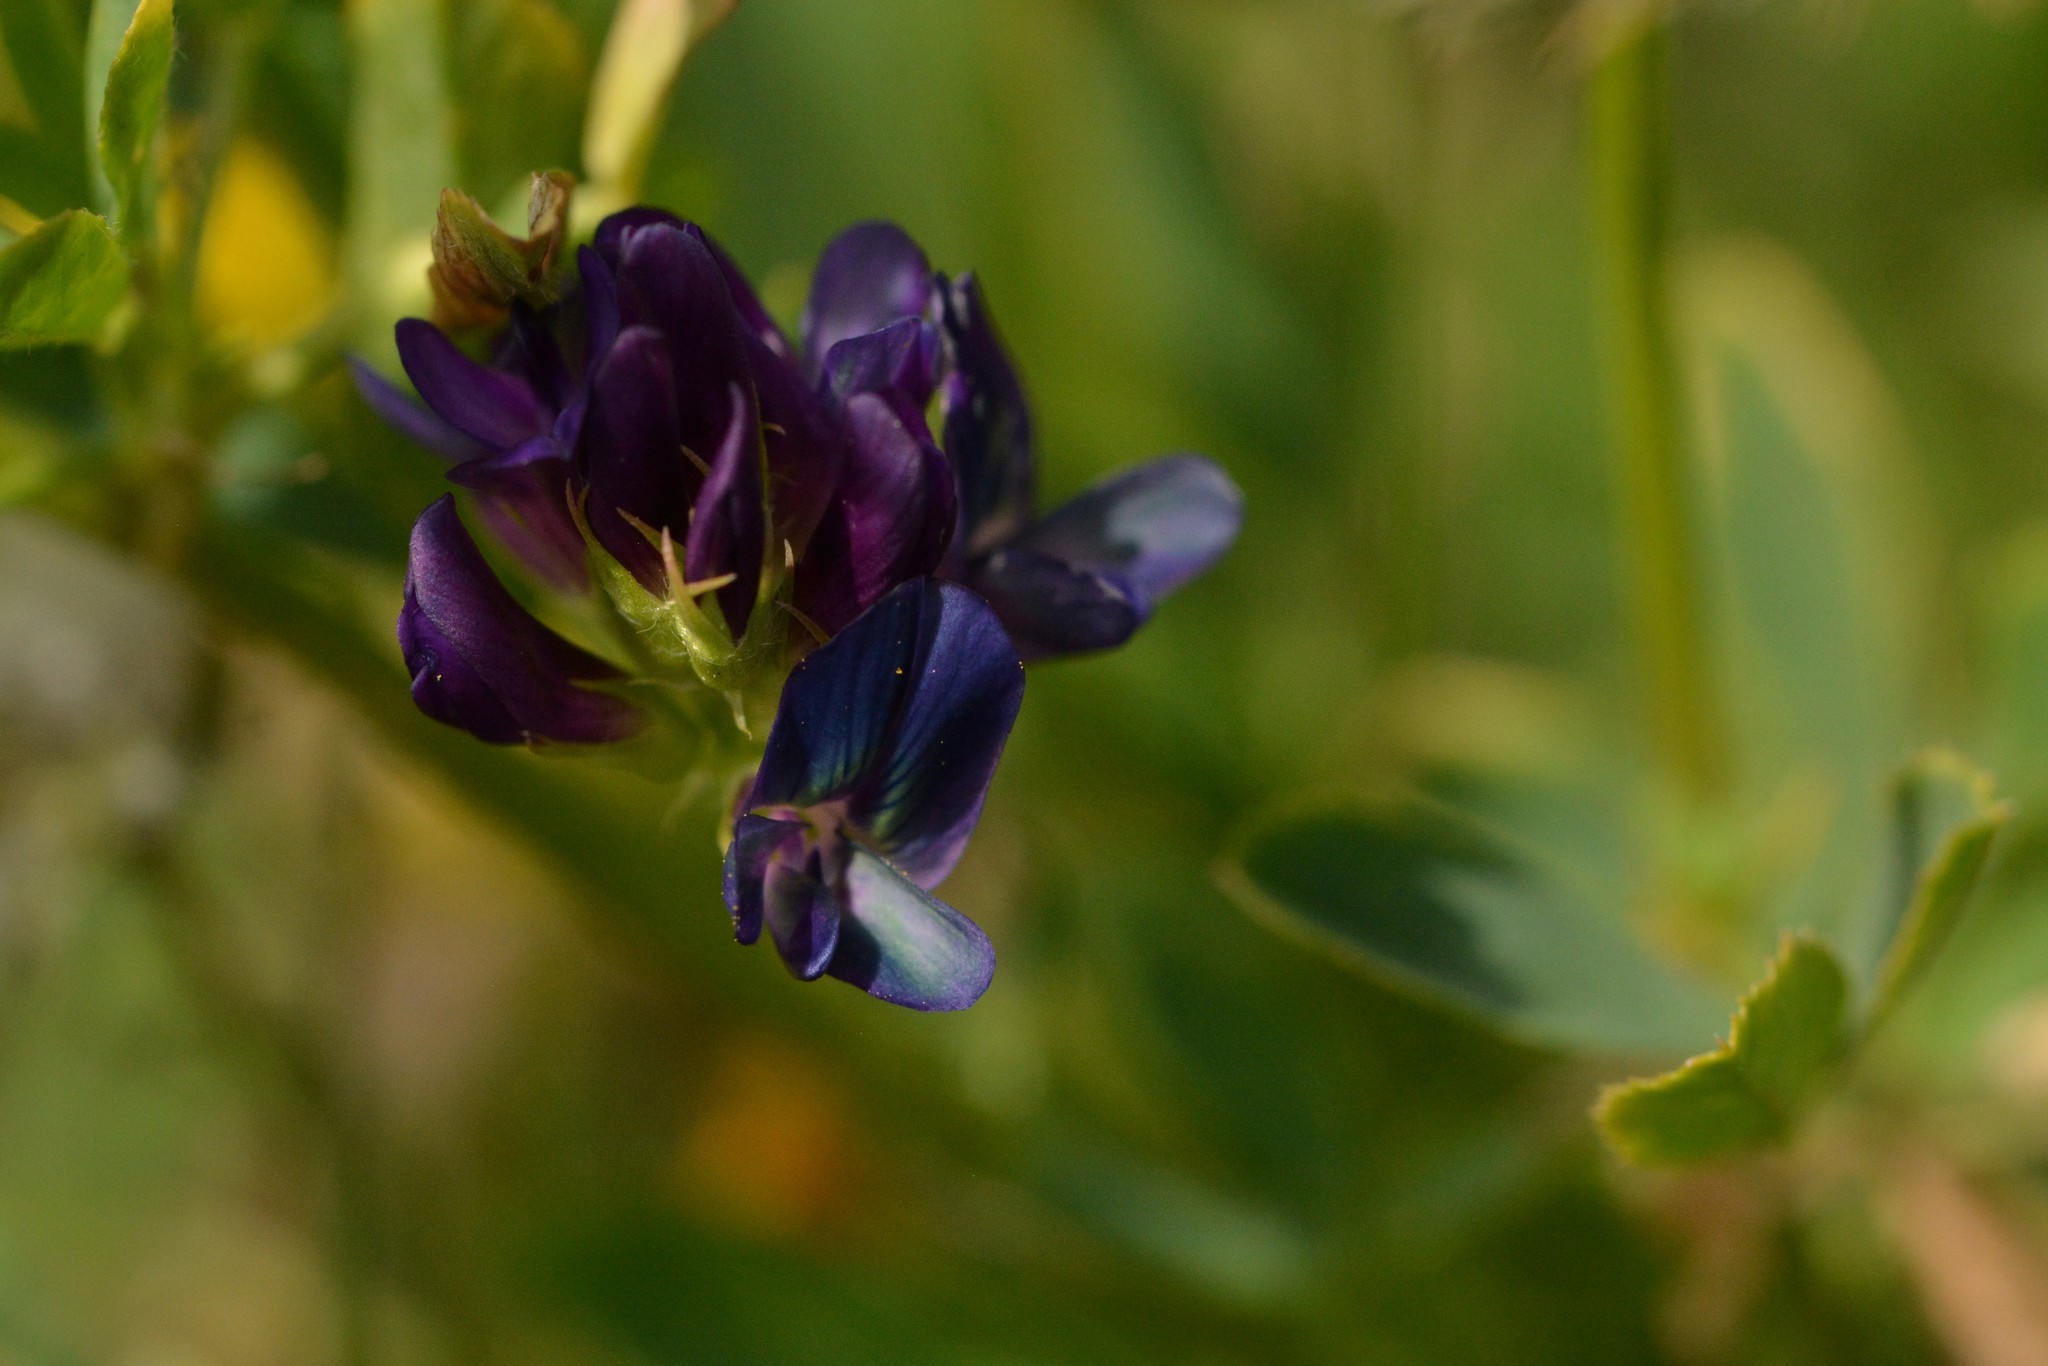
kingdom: Plantae
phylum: Tracheophyta
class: Magnoliopsida
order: Fabales
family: Fabaceae
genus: Medicago
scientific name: Medicago sativa
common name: Alfalfa
